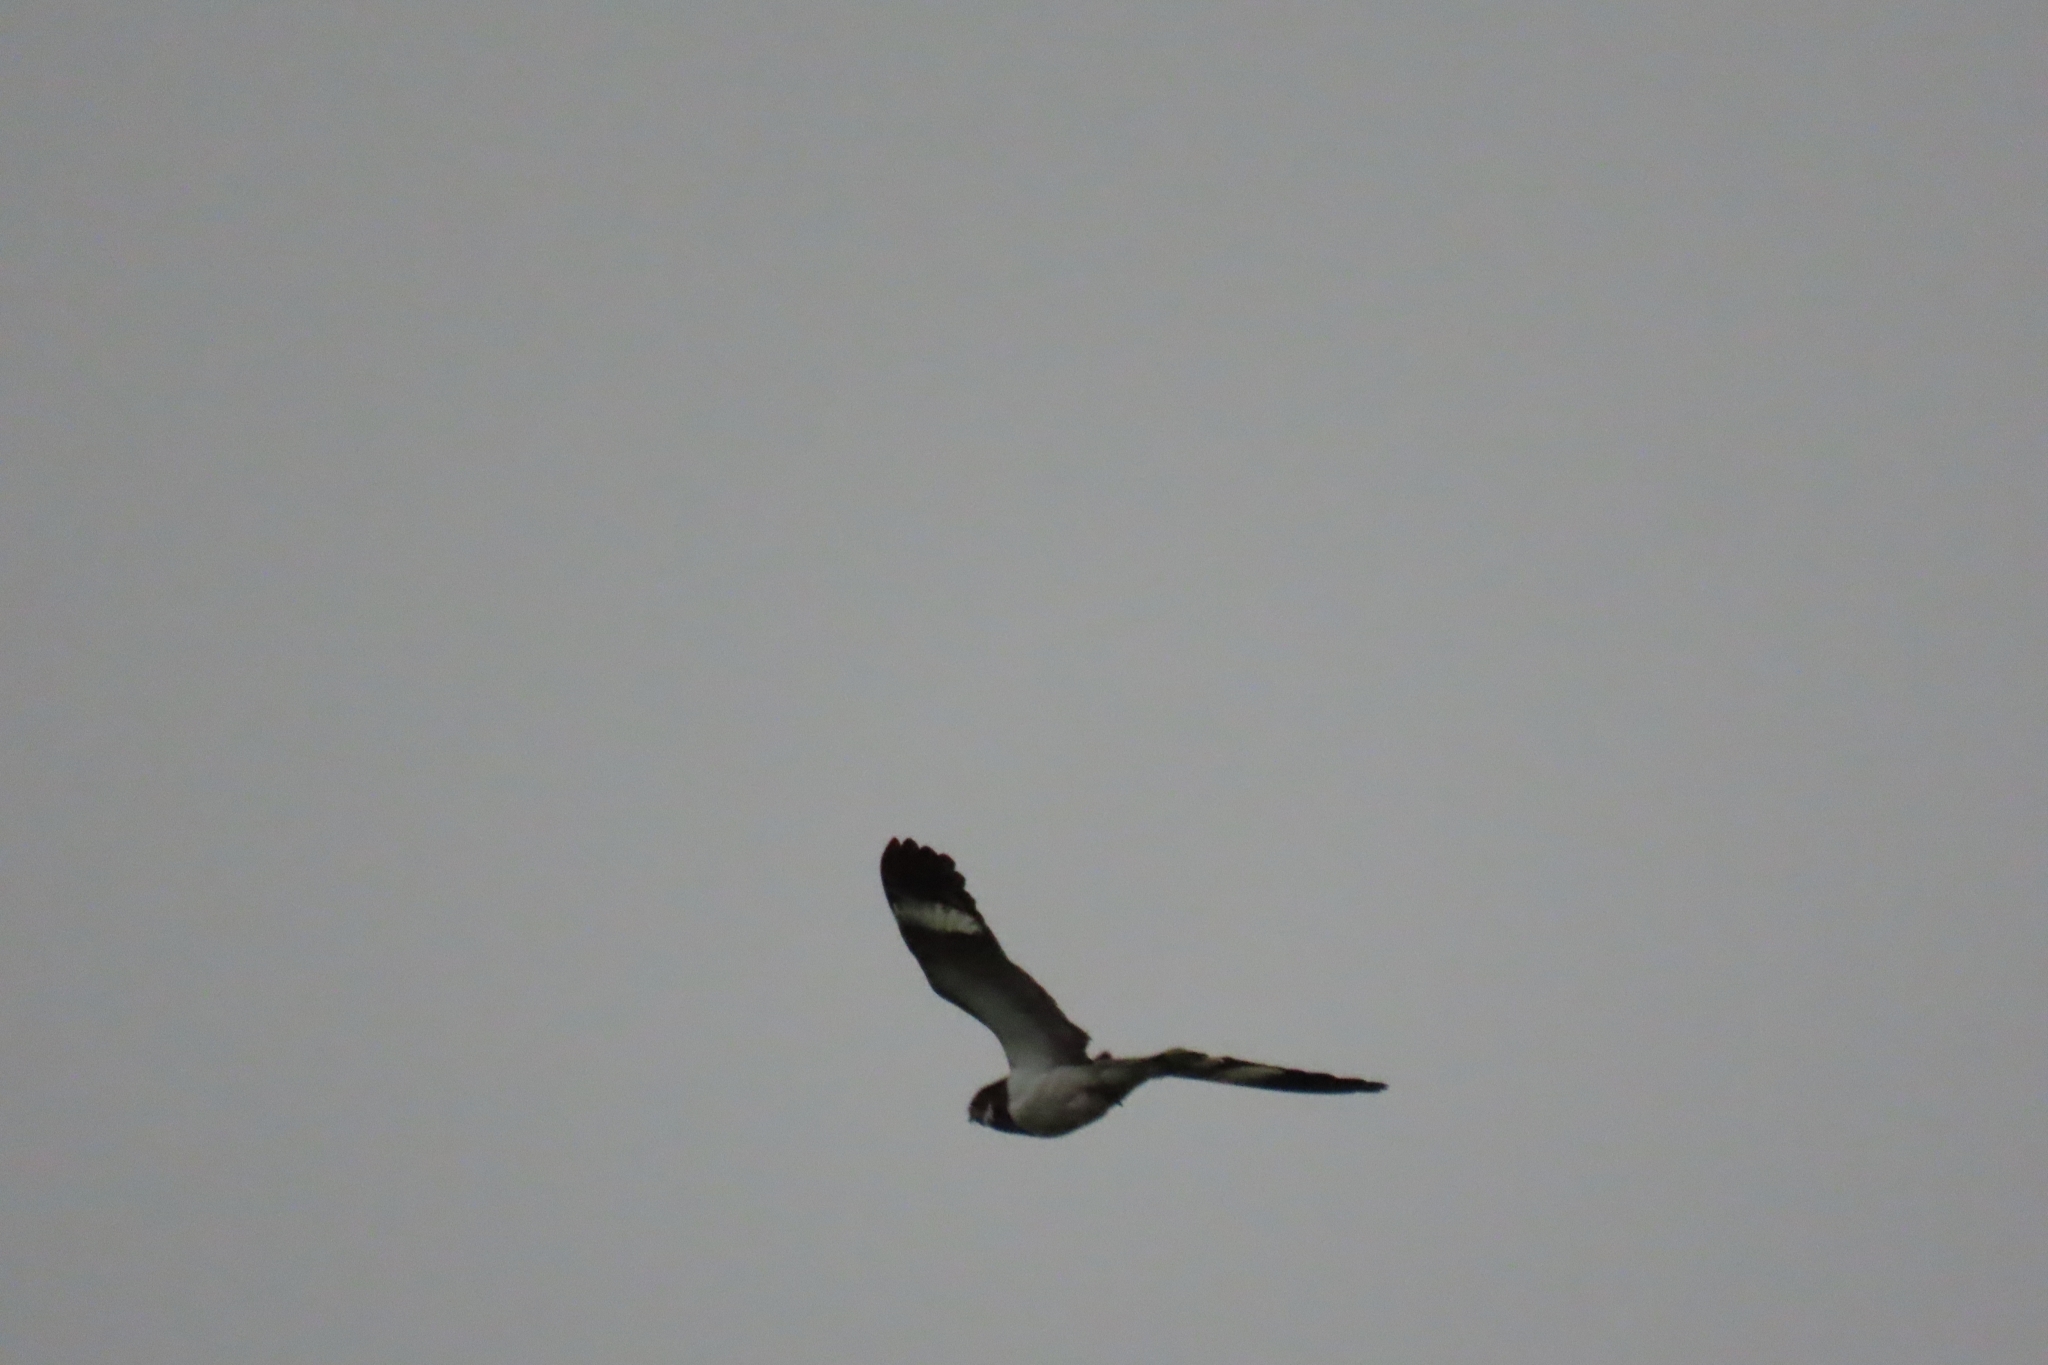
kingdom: Animalia
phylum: Chordata
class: Aves
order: Caprimulgiformes
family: Caprimulgidae
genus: Chordeiles
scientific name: Chordeiles nacunda
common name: Nacunda nighthawk
